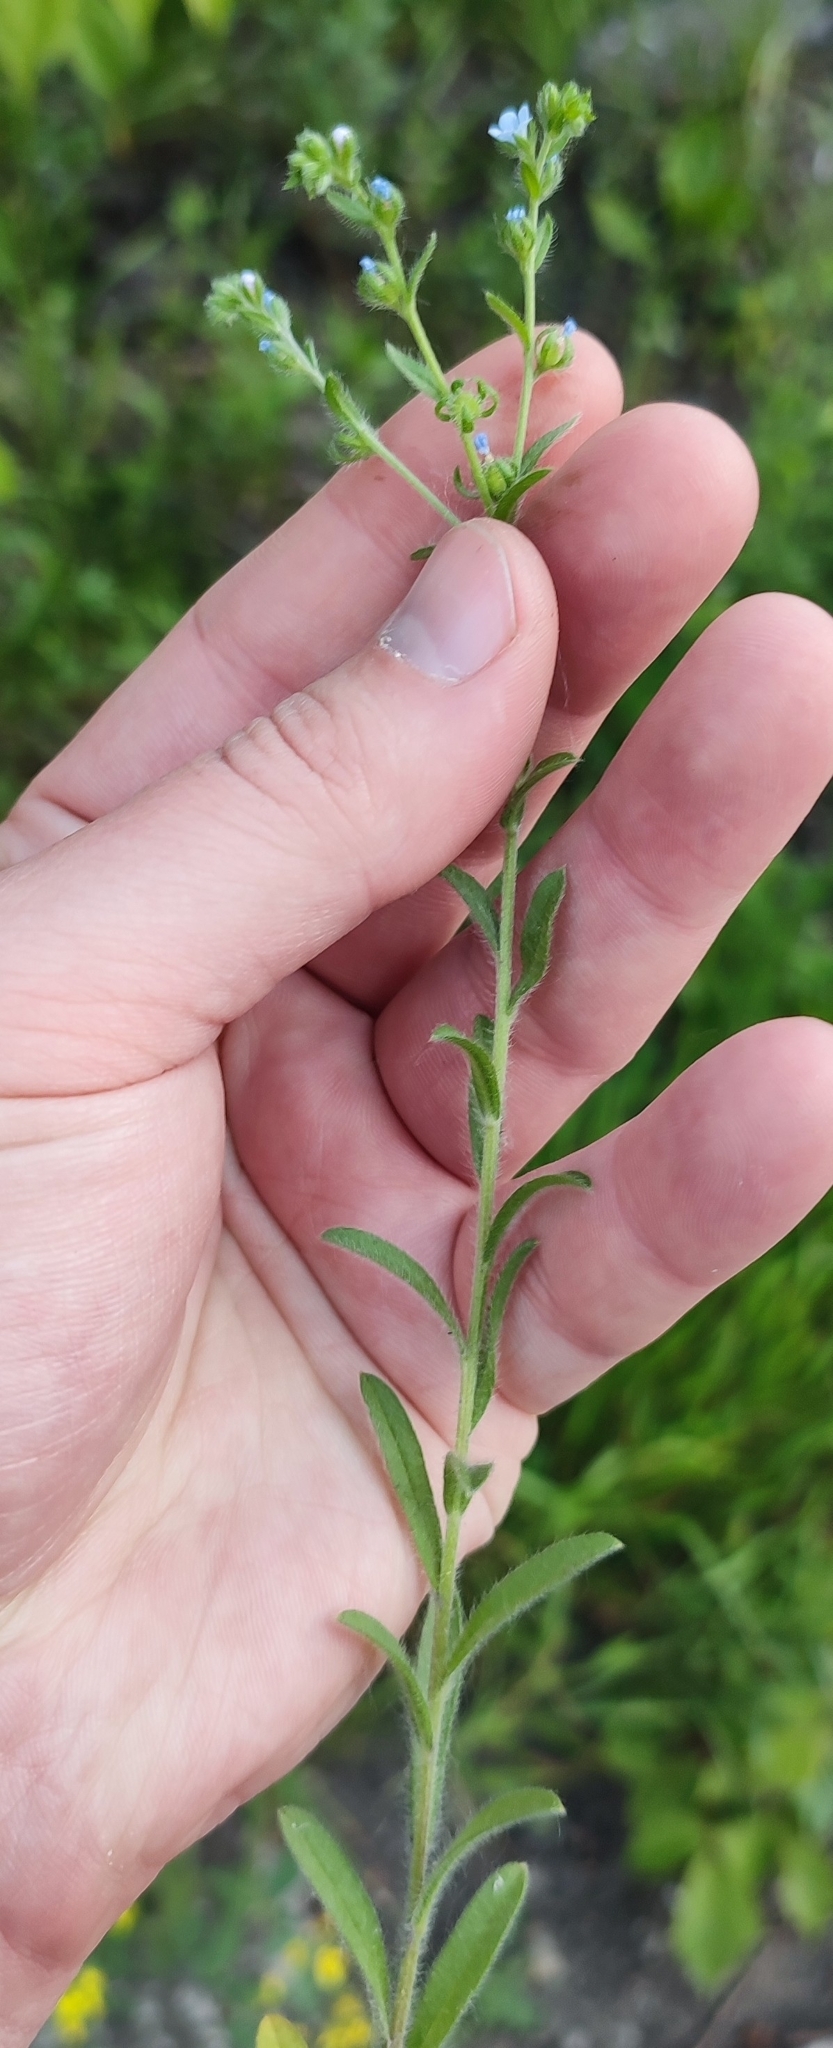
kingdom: Plantae
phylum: Tracheophyta
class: Magnoliopsida
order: Boraginales
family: Boraginaceae
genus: Lappula
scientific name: Lappula squarrosa
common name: European stickseed
